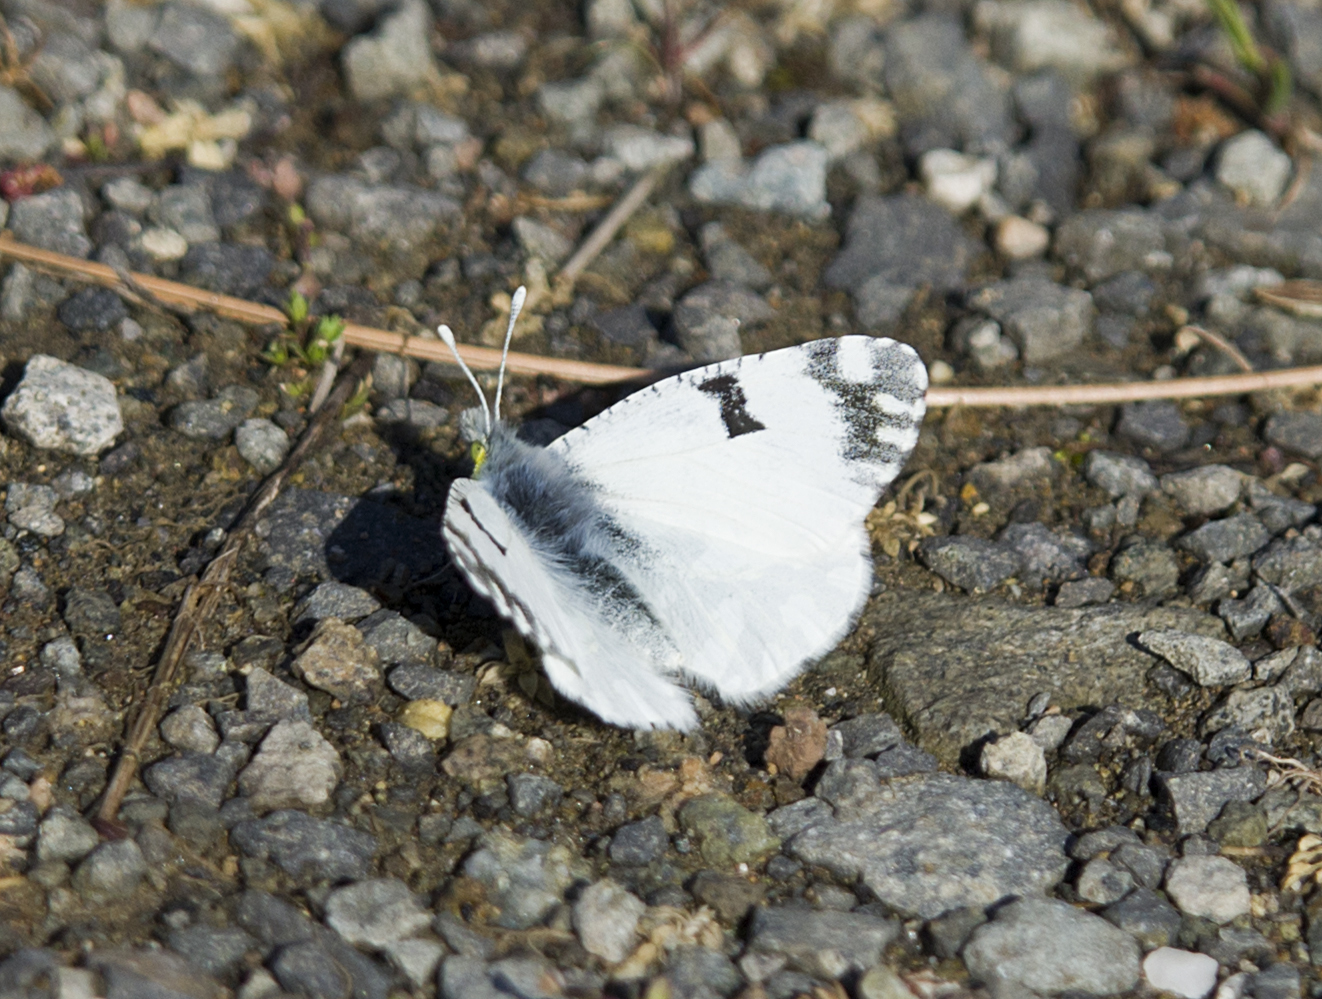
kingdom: Animalia
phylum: Arthropoda
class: Insecta
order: Lepidoptera
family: Pieridae
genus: Euchloe
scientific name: Euchloe ausonia
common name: Eastern dappled white
